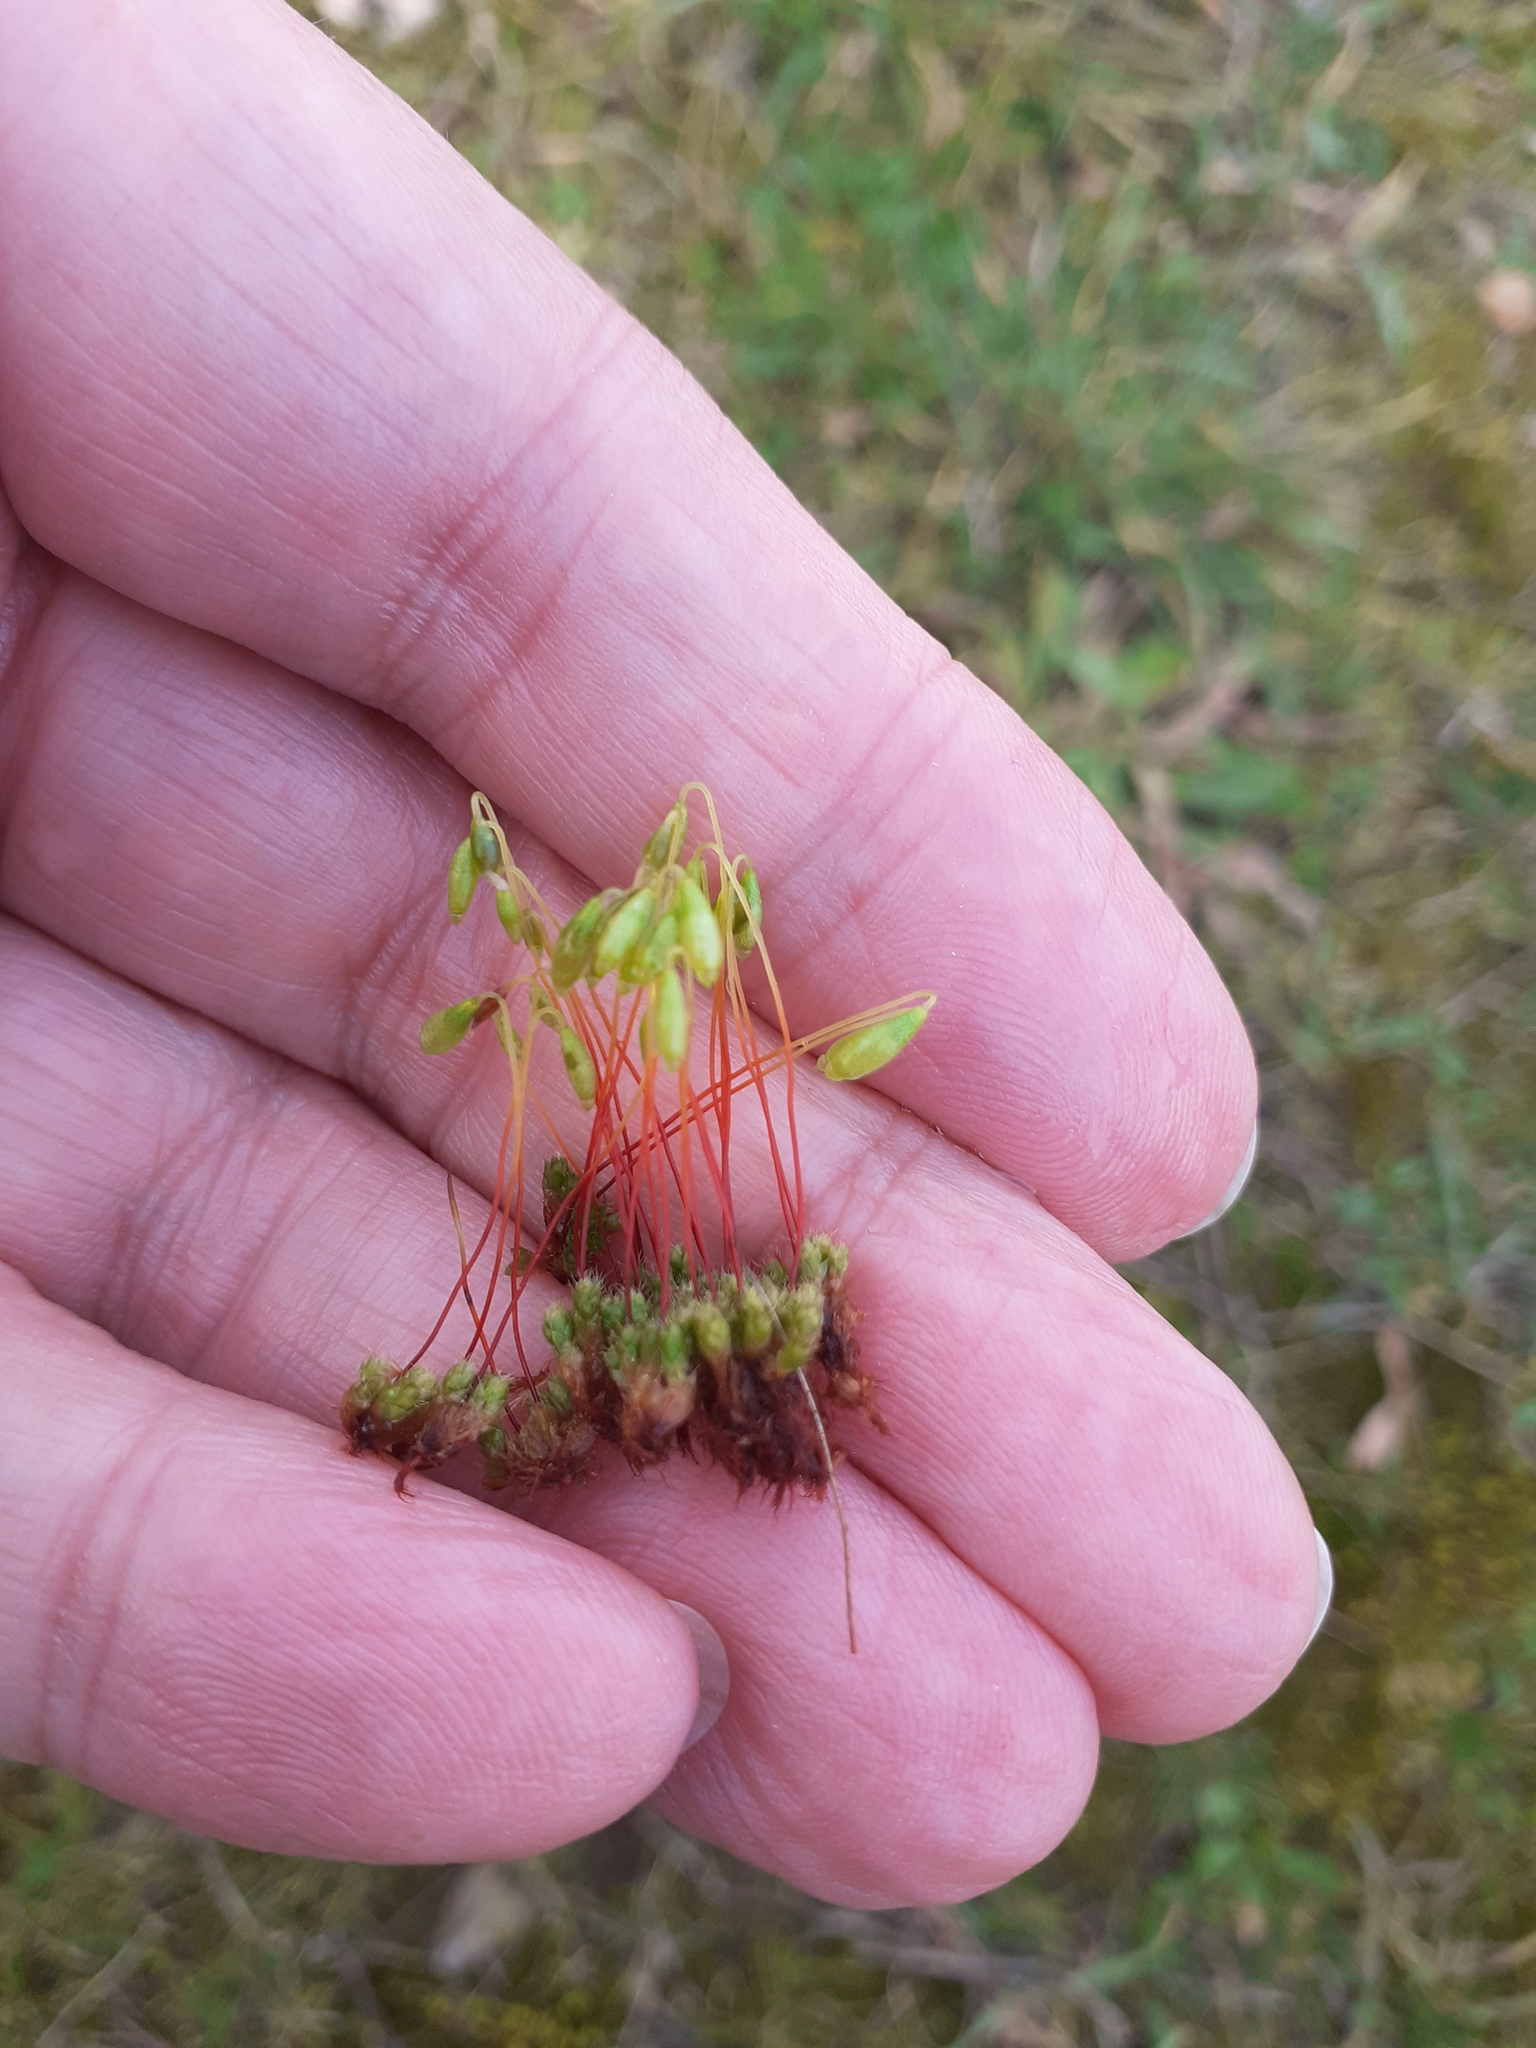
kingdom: Plantae
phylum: Bryophyta
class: Bryopsida
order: Bryales
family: Bryaceae
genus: Rosulabryum
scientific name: Rosulabryum capillare
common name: Capillary thread-moss
